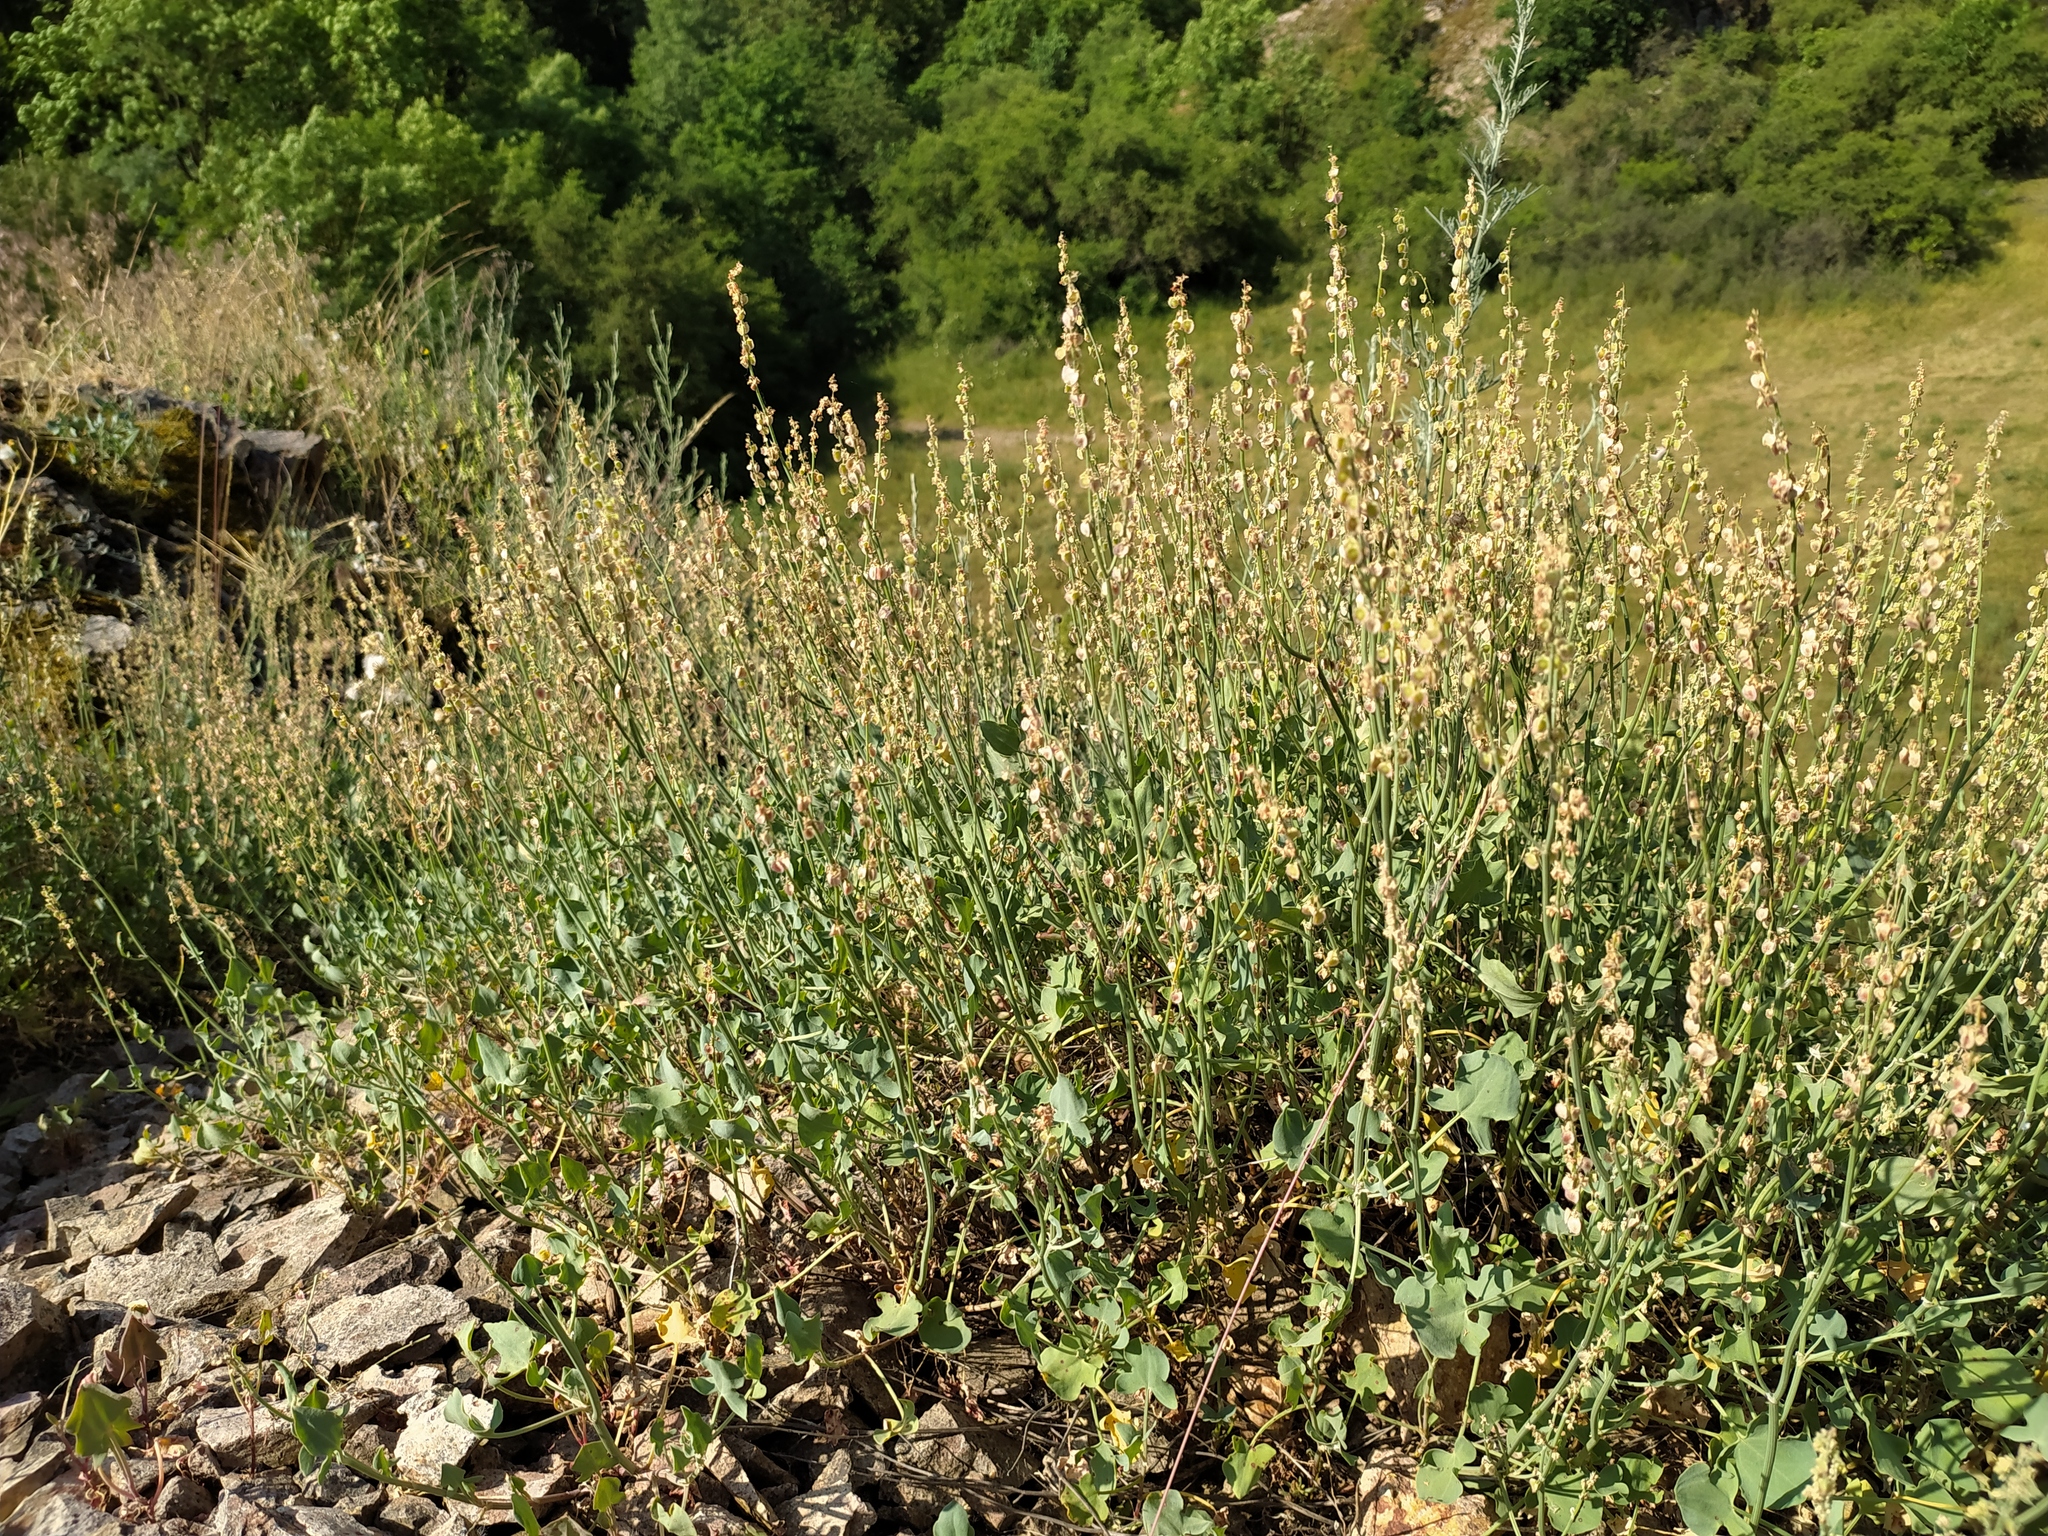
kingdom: Plantae
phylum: Tracheophyta
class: Magnoliopsida
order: Caryophyllales
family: Polygonaceae
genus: Rumex
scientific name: Rumex scutatus
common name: French sorrel
